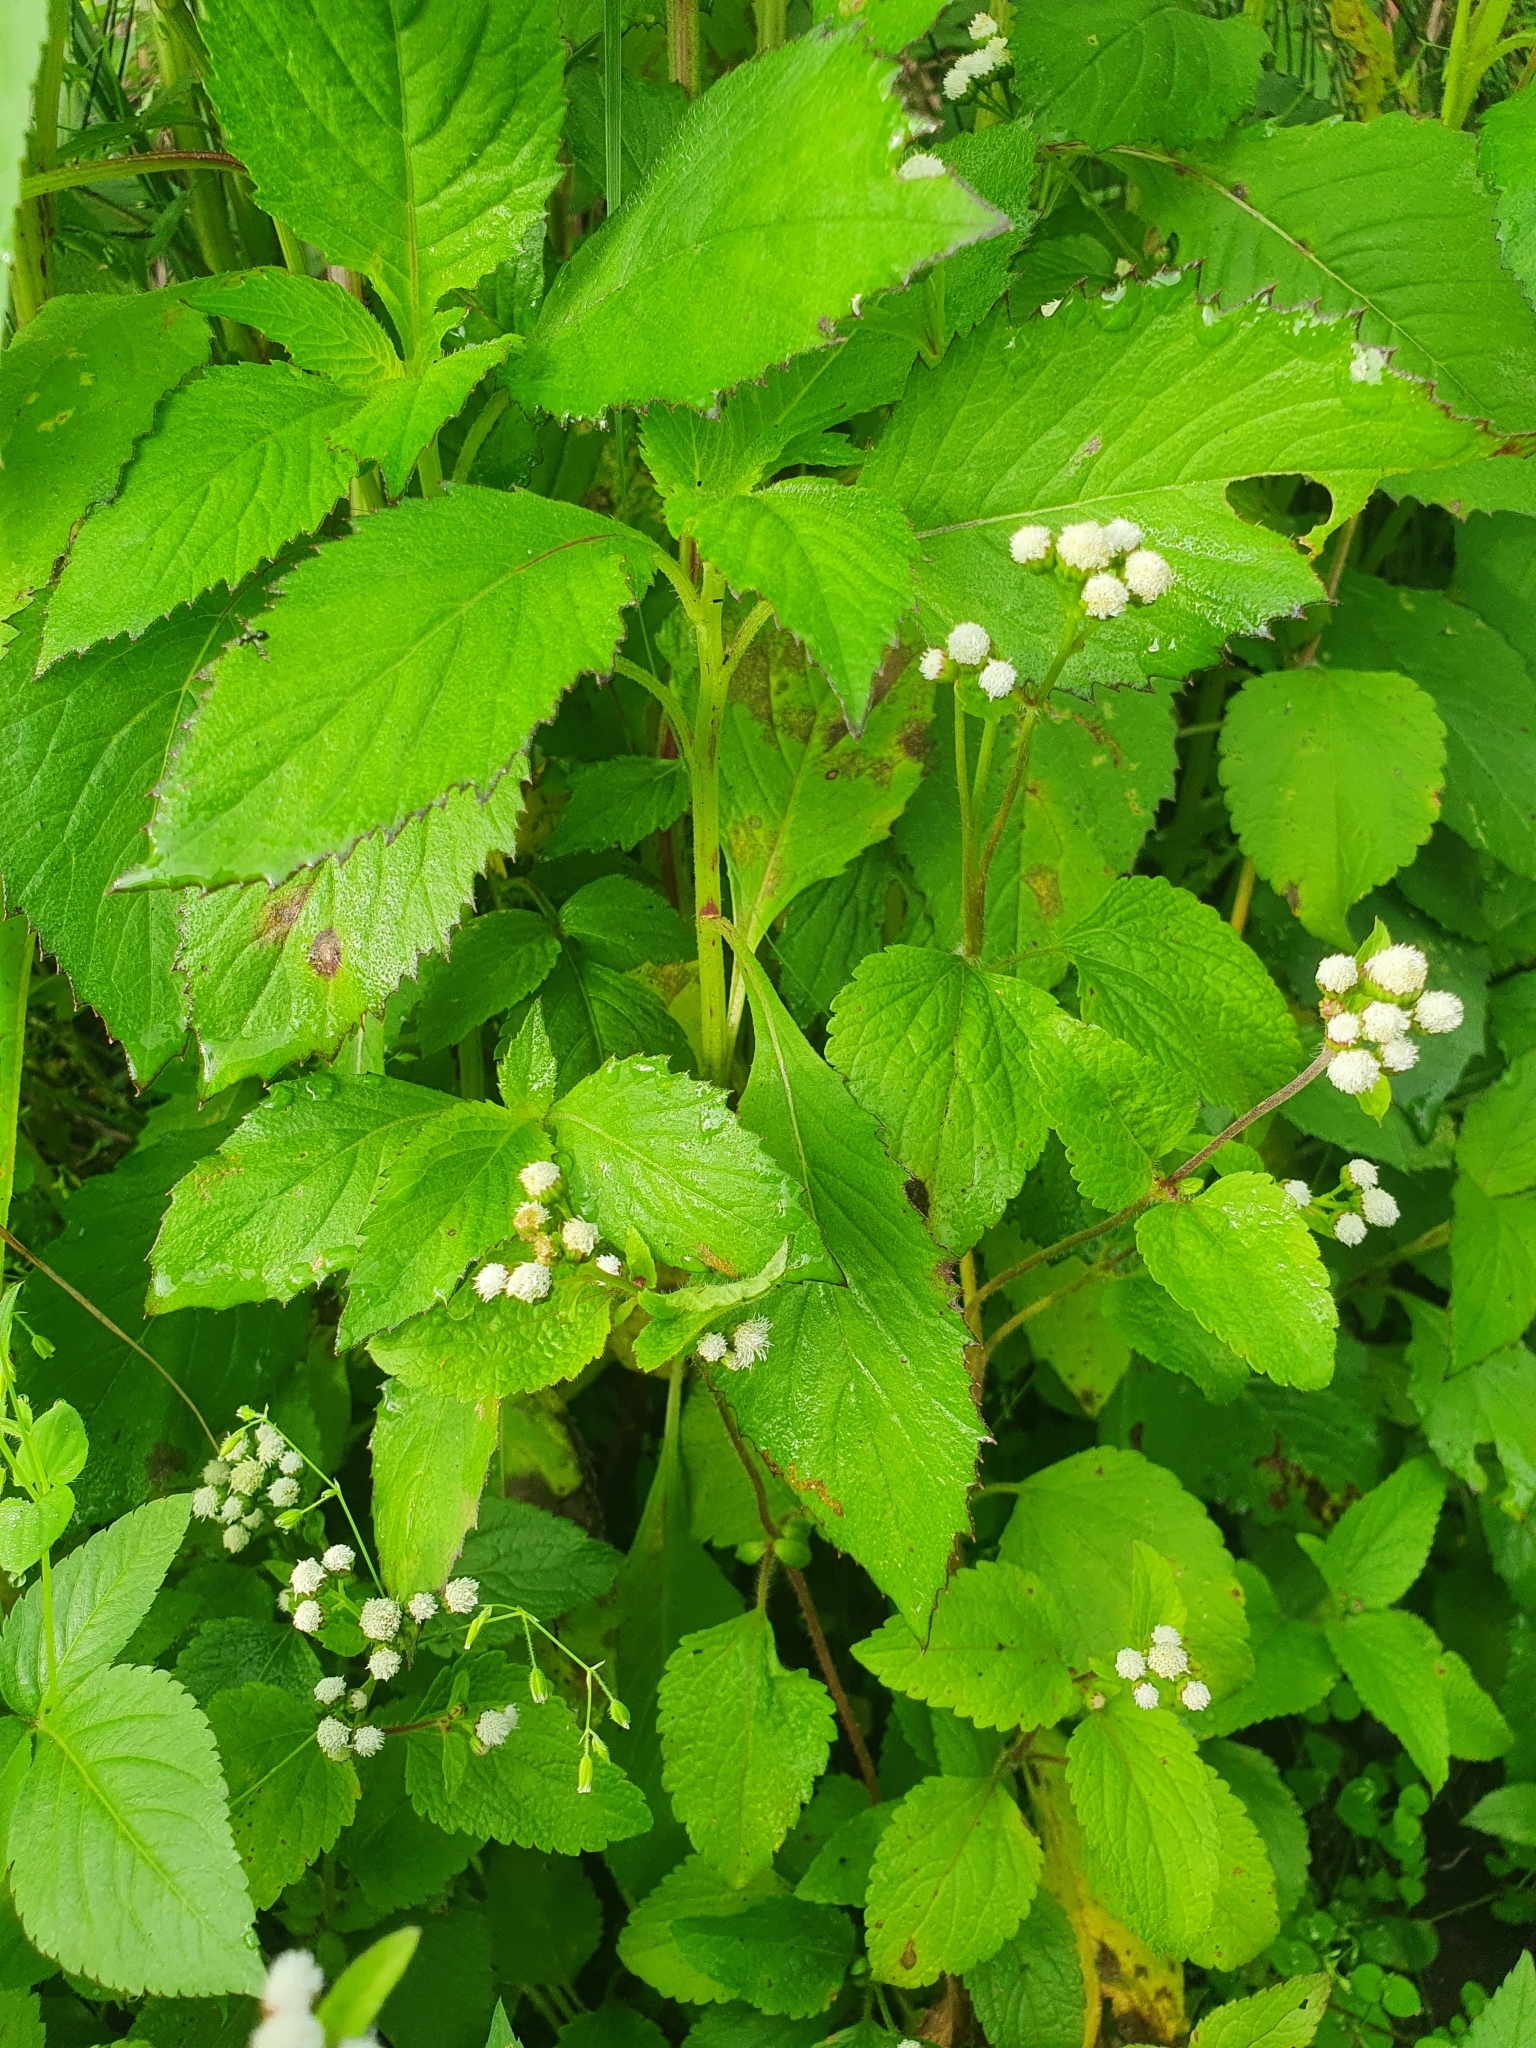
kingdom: Plantae
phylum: Tracheophyta
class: Magnoliopsida
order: Asterales
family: Asteraceae
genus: Ageratum
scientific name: Ageratum conyzoides
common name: Tropical whiteweed
